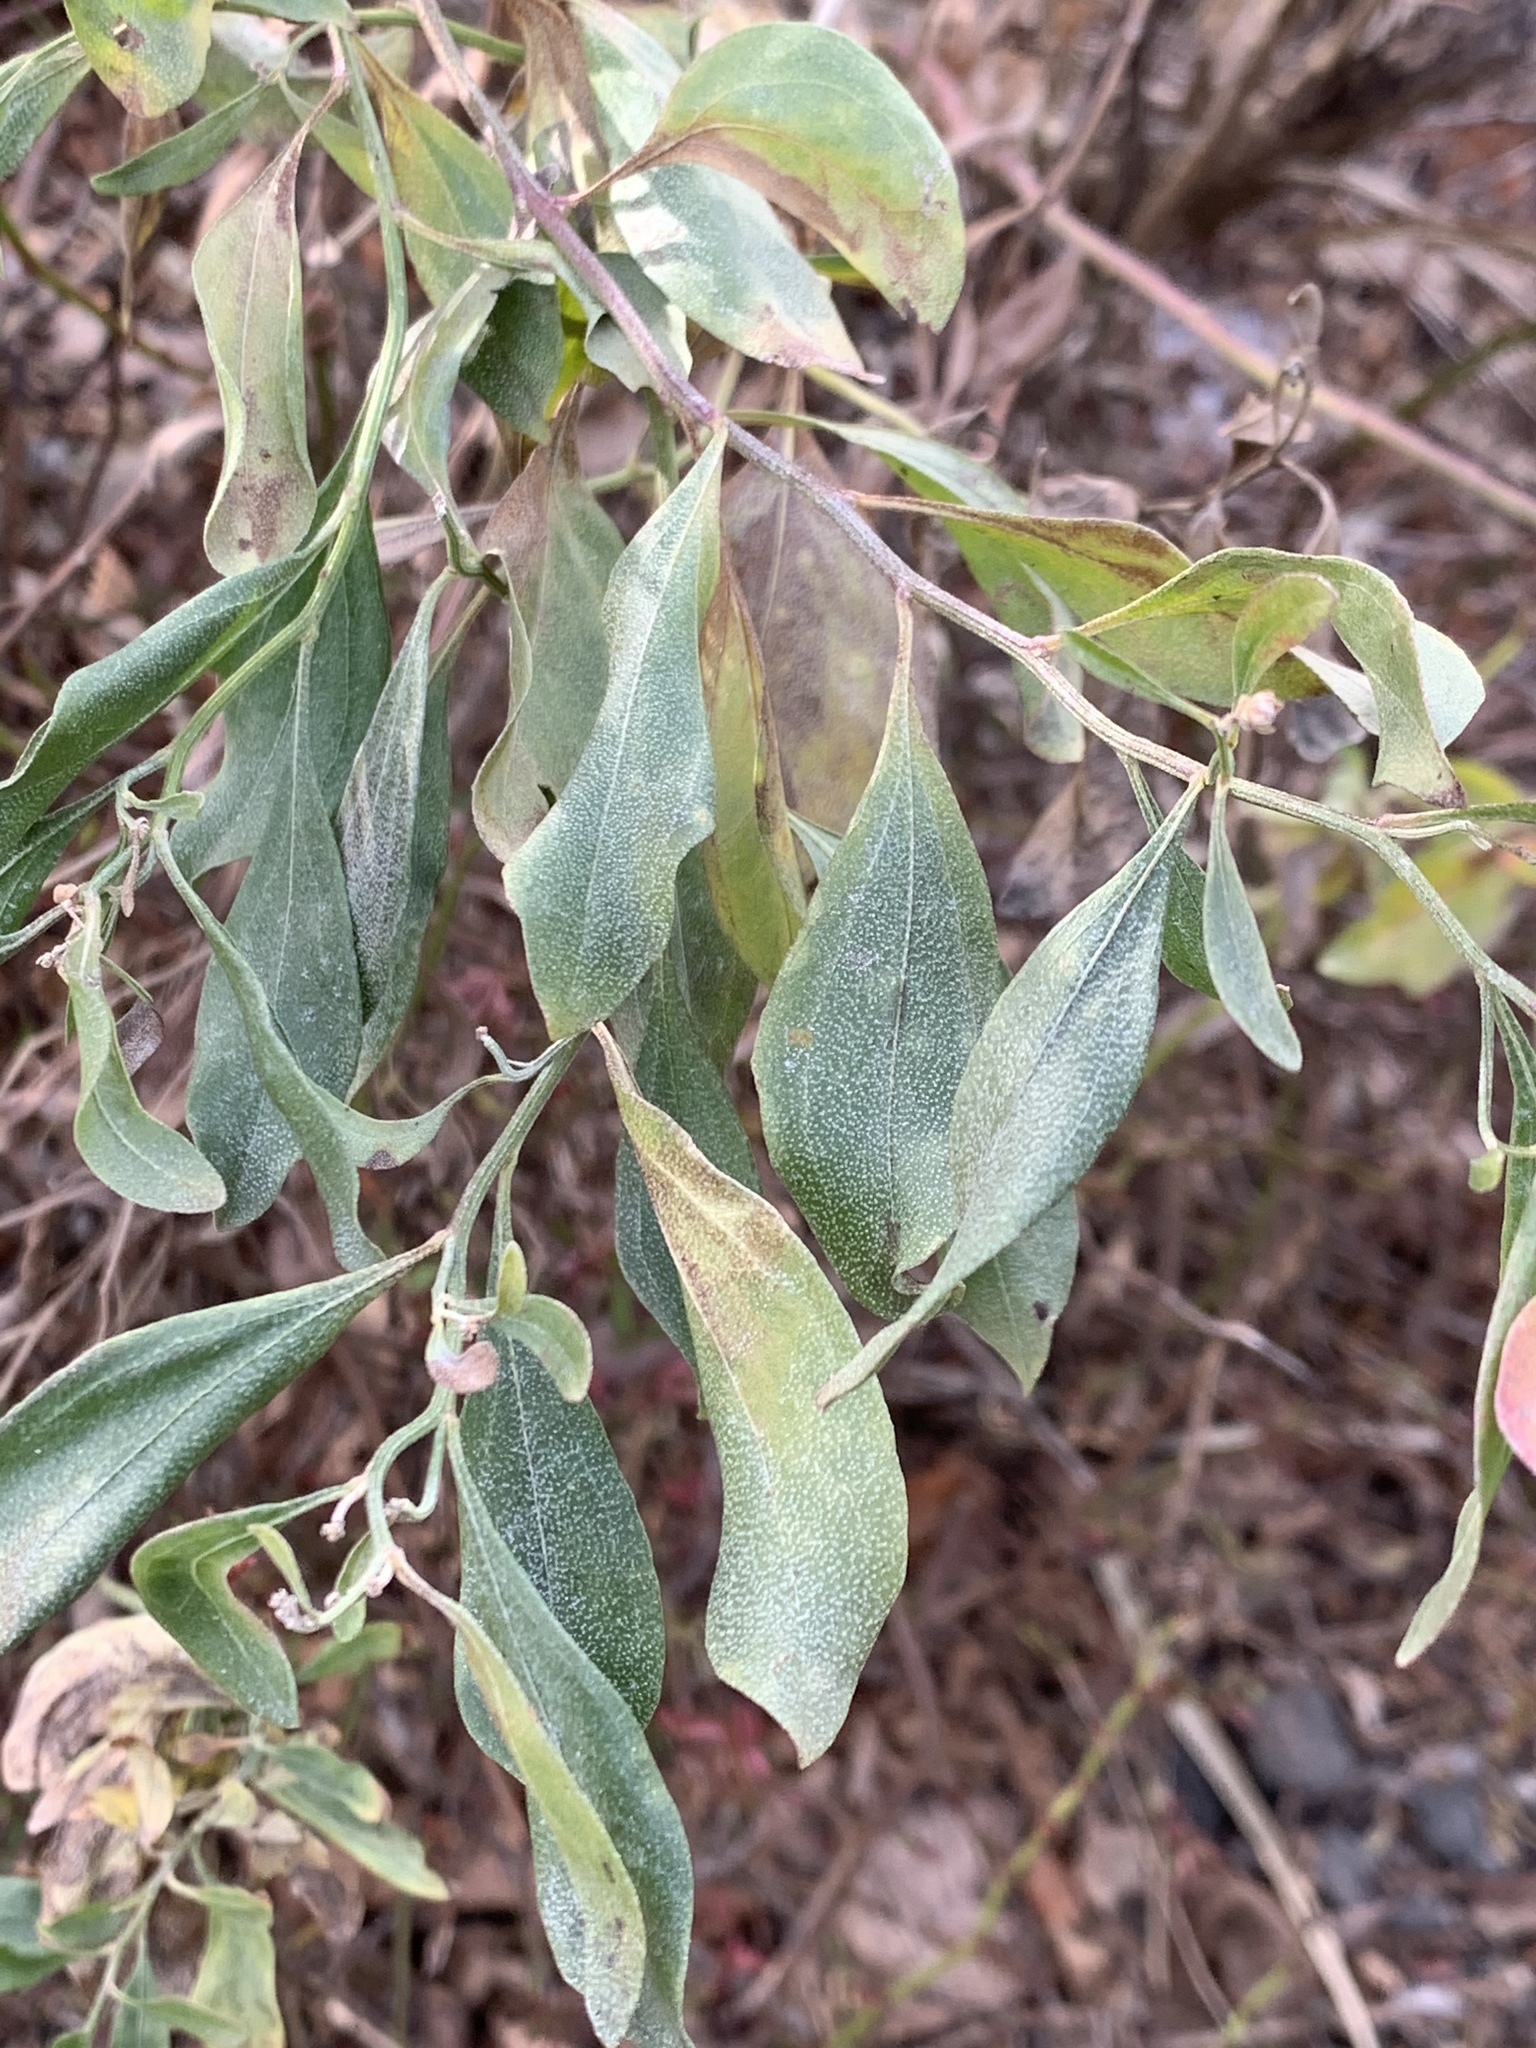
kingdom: Plantae
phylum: Tracheophyta
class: Magnoliopsida
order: Asterales
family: Asteraceae
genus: Baccharis
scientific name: Baccharis halimifolia
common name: Eastern baccharis
